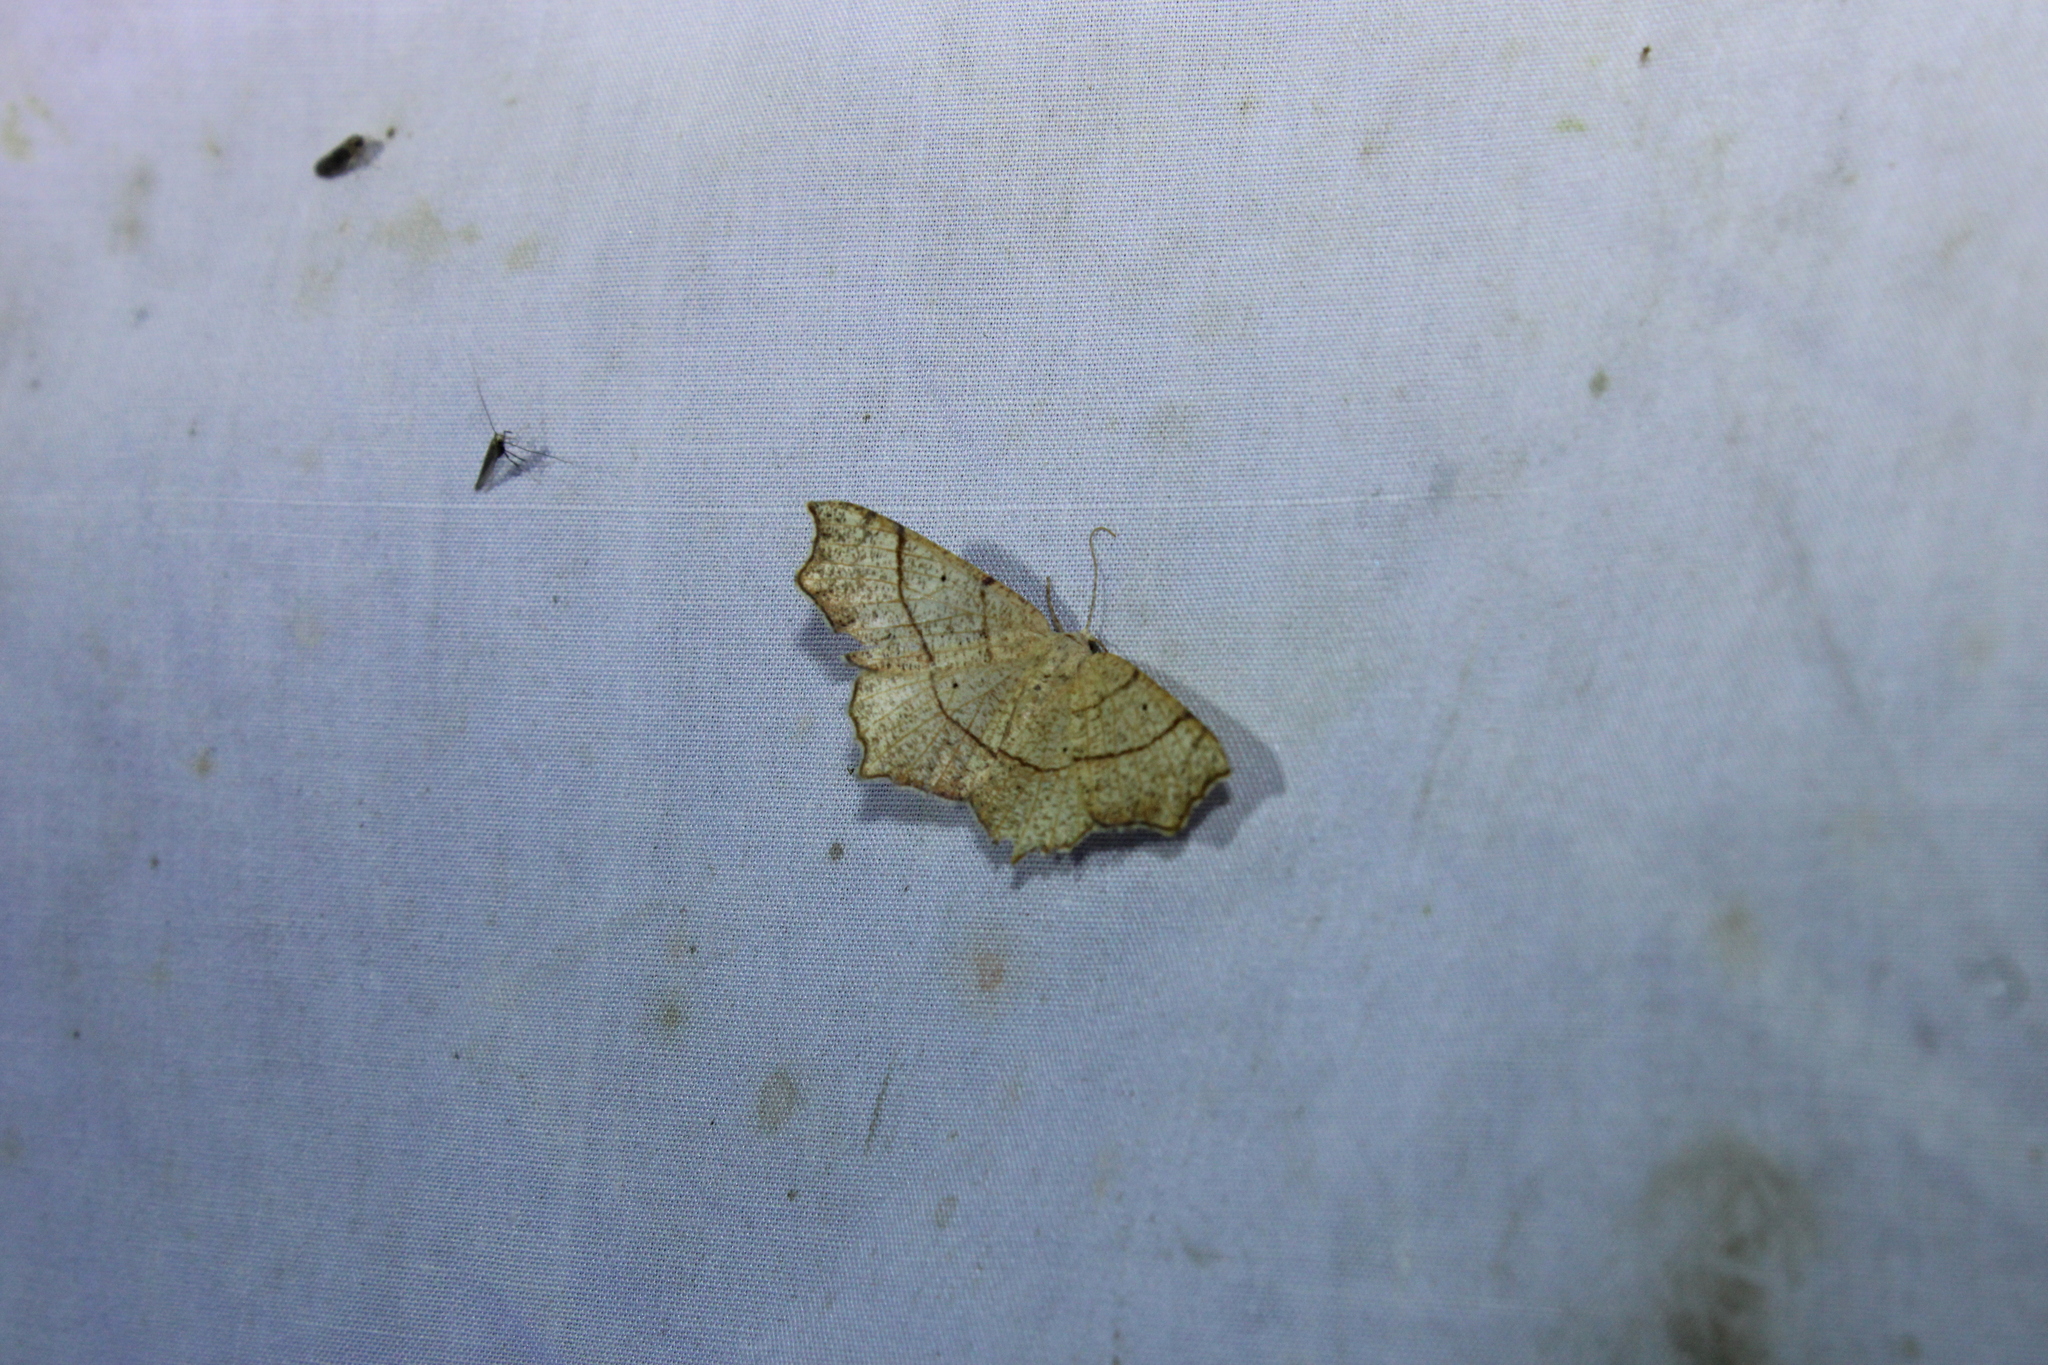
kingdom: Animalia
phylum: Arthropoda
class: Insecta
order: Lepidoptera
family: Geometridae
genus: Besma
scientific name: Besma quercivoraria
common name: Oak besma
